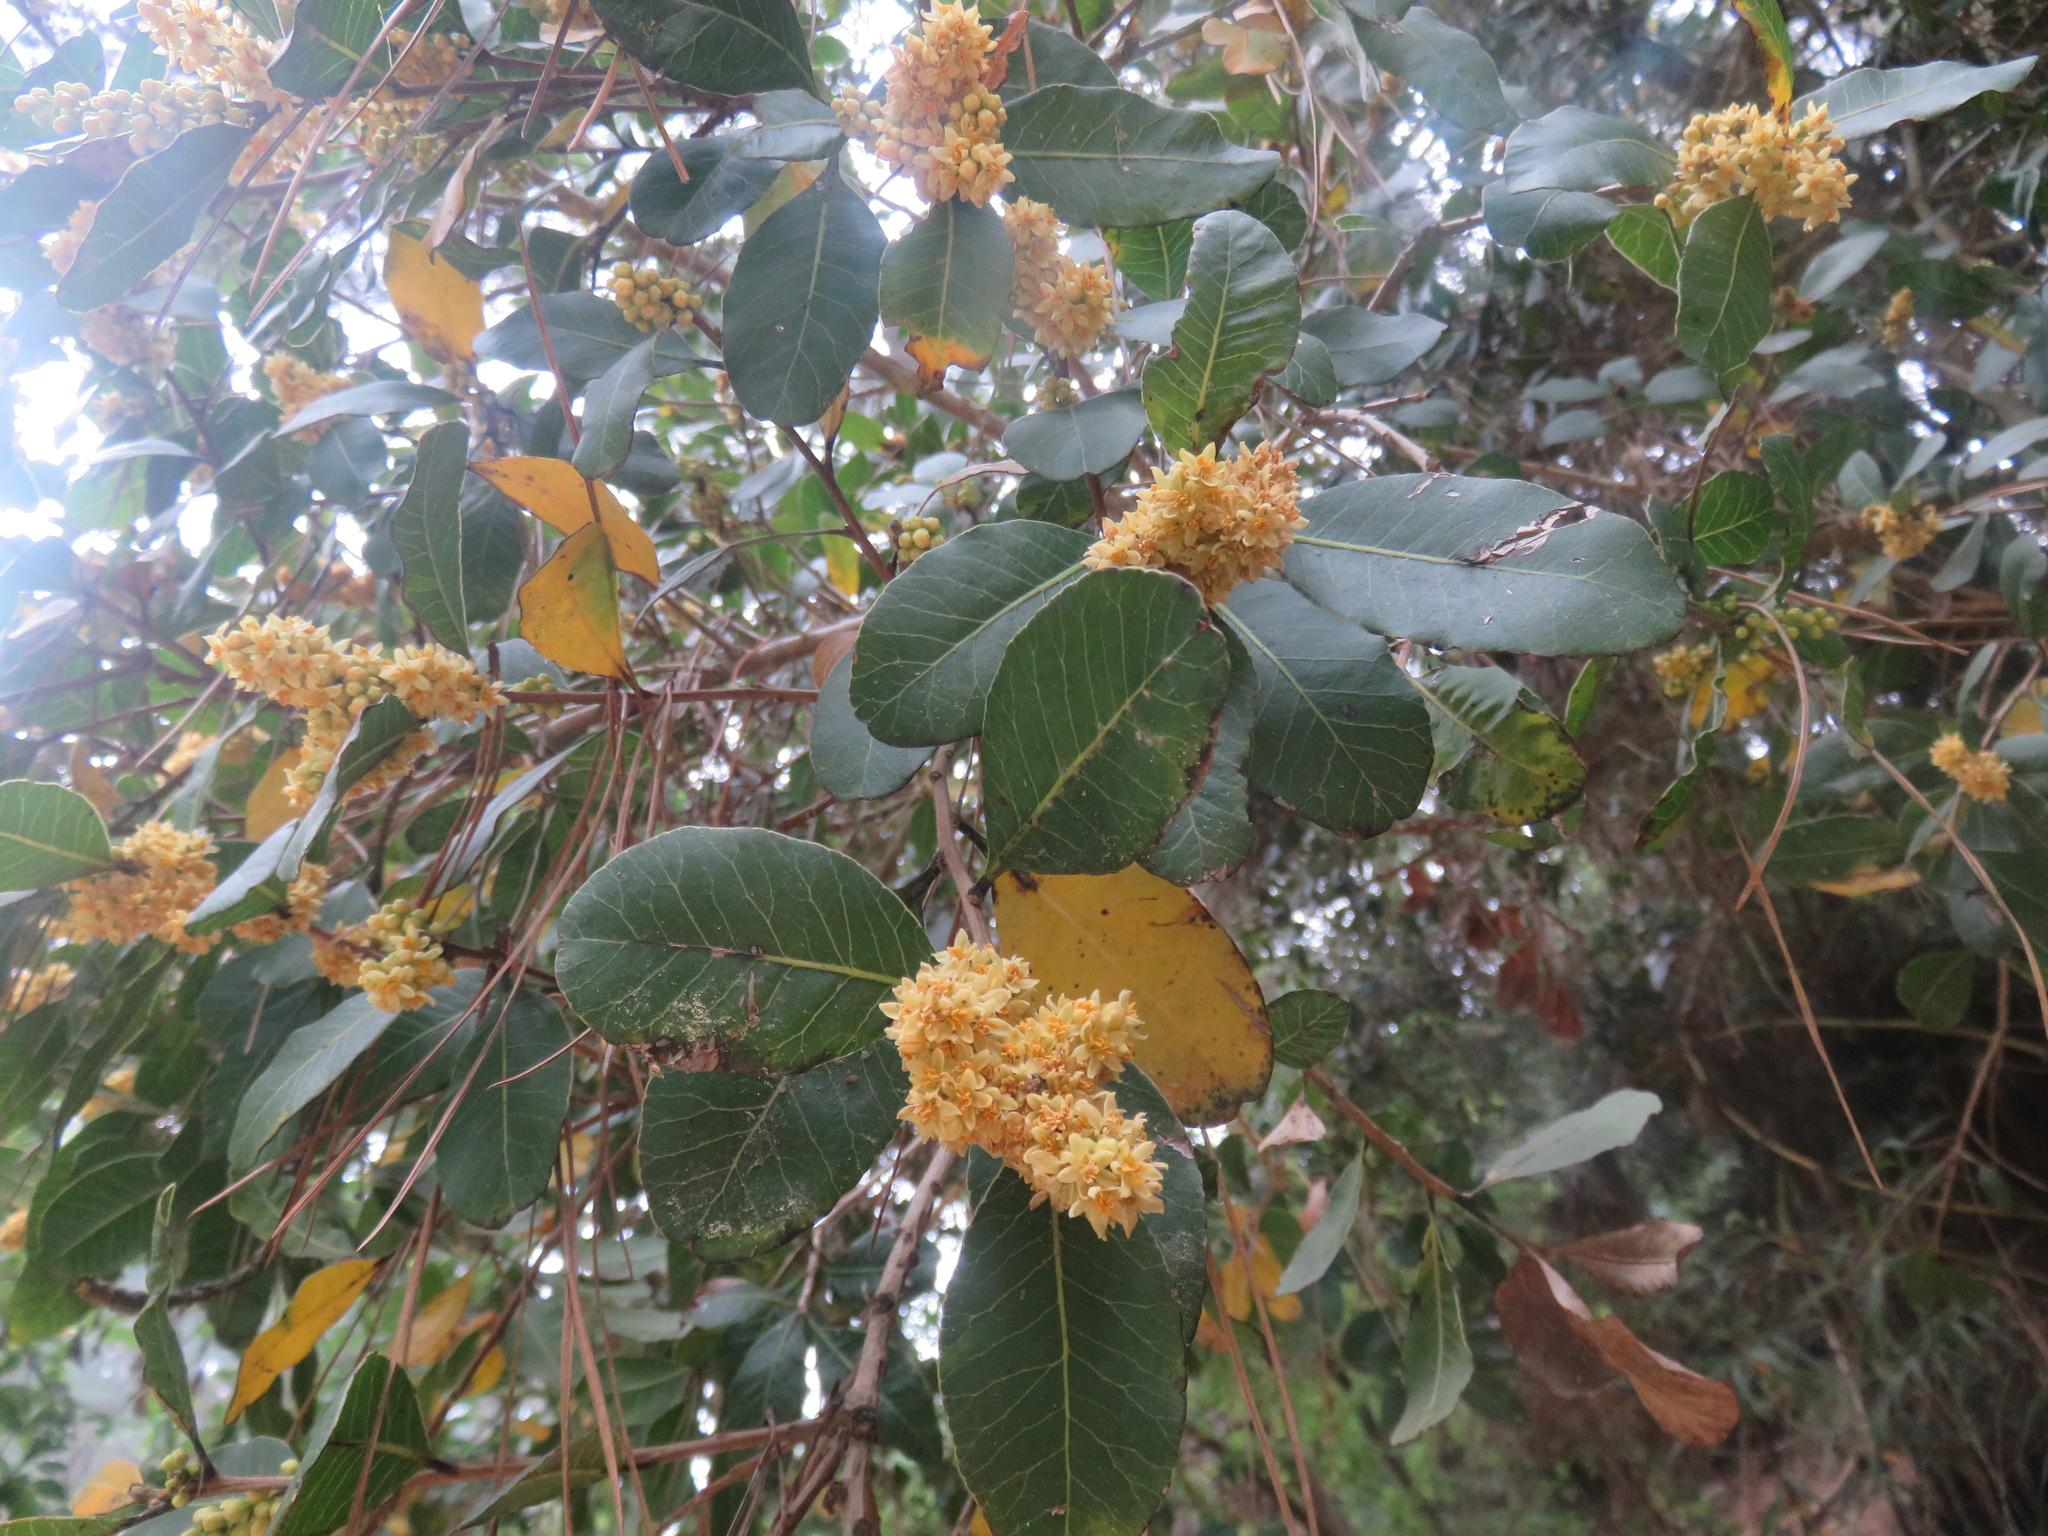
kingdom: Plantae
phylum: Tracheophyta
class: Magnoliopsida
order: Sapindales
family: Anacardiaceae
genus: Lithraea
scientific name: Lithraea caustica
